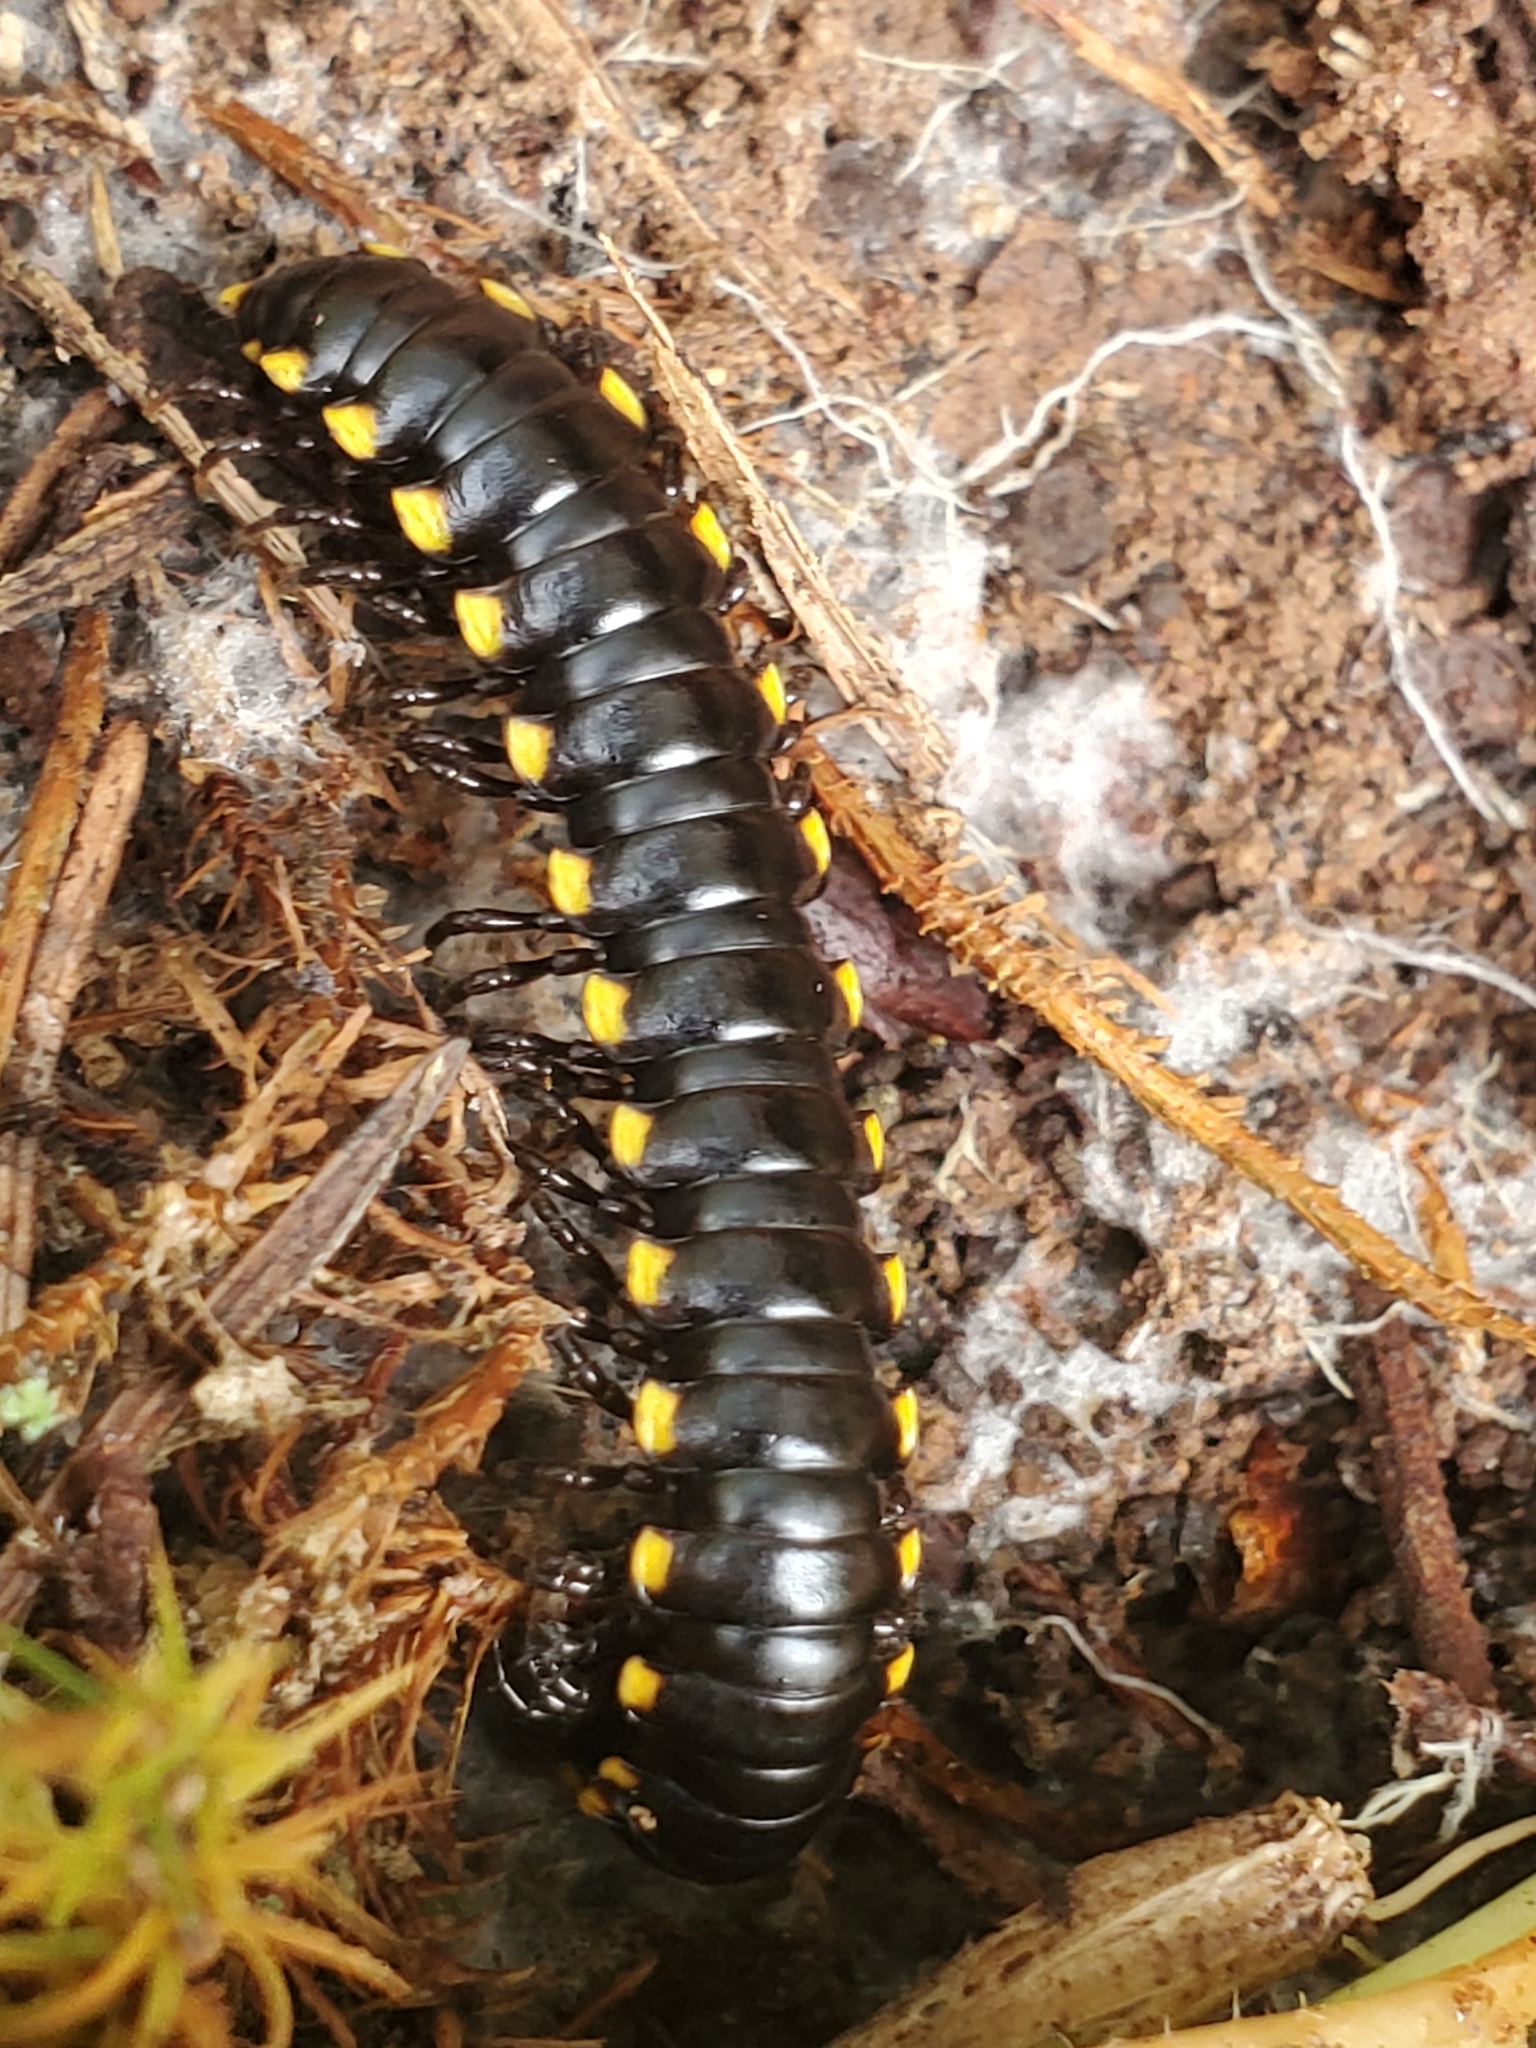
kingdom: Animalia
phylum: Arthropoda
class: Diplopoda
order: Polydesmida
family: Xystodesmidae
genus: Harpaphe
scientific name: Harpaphe haydeniana
